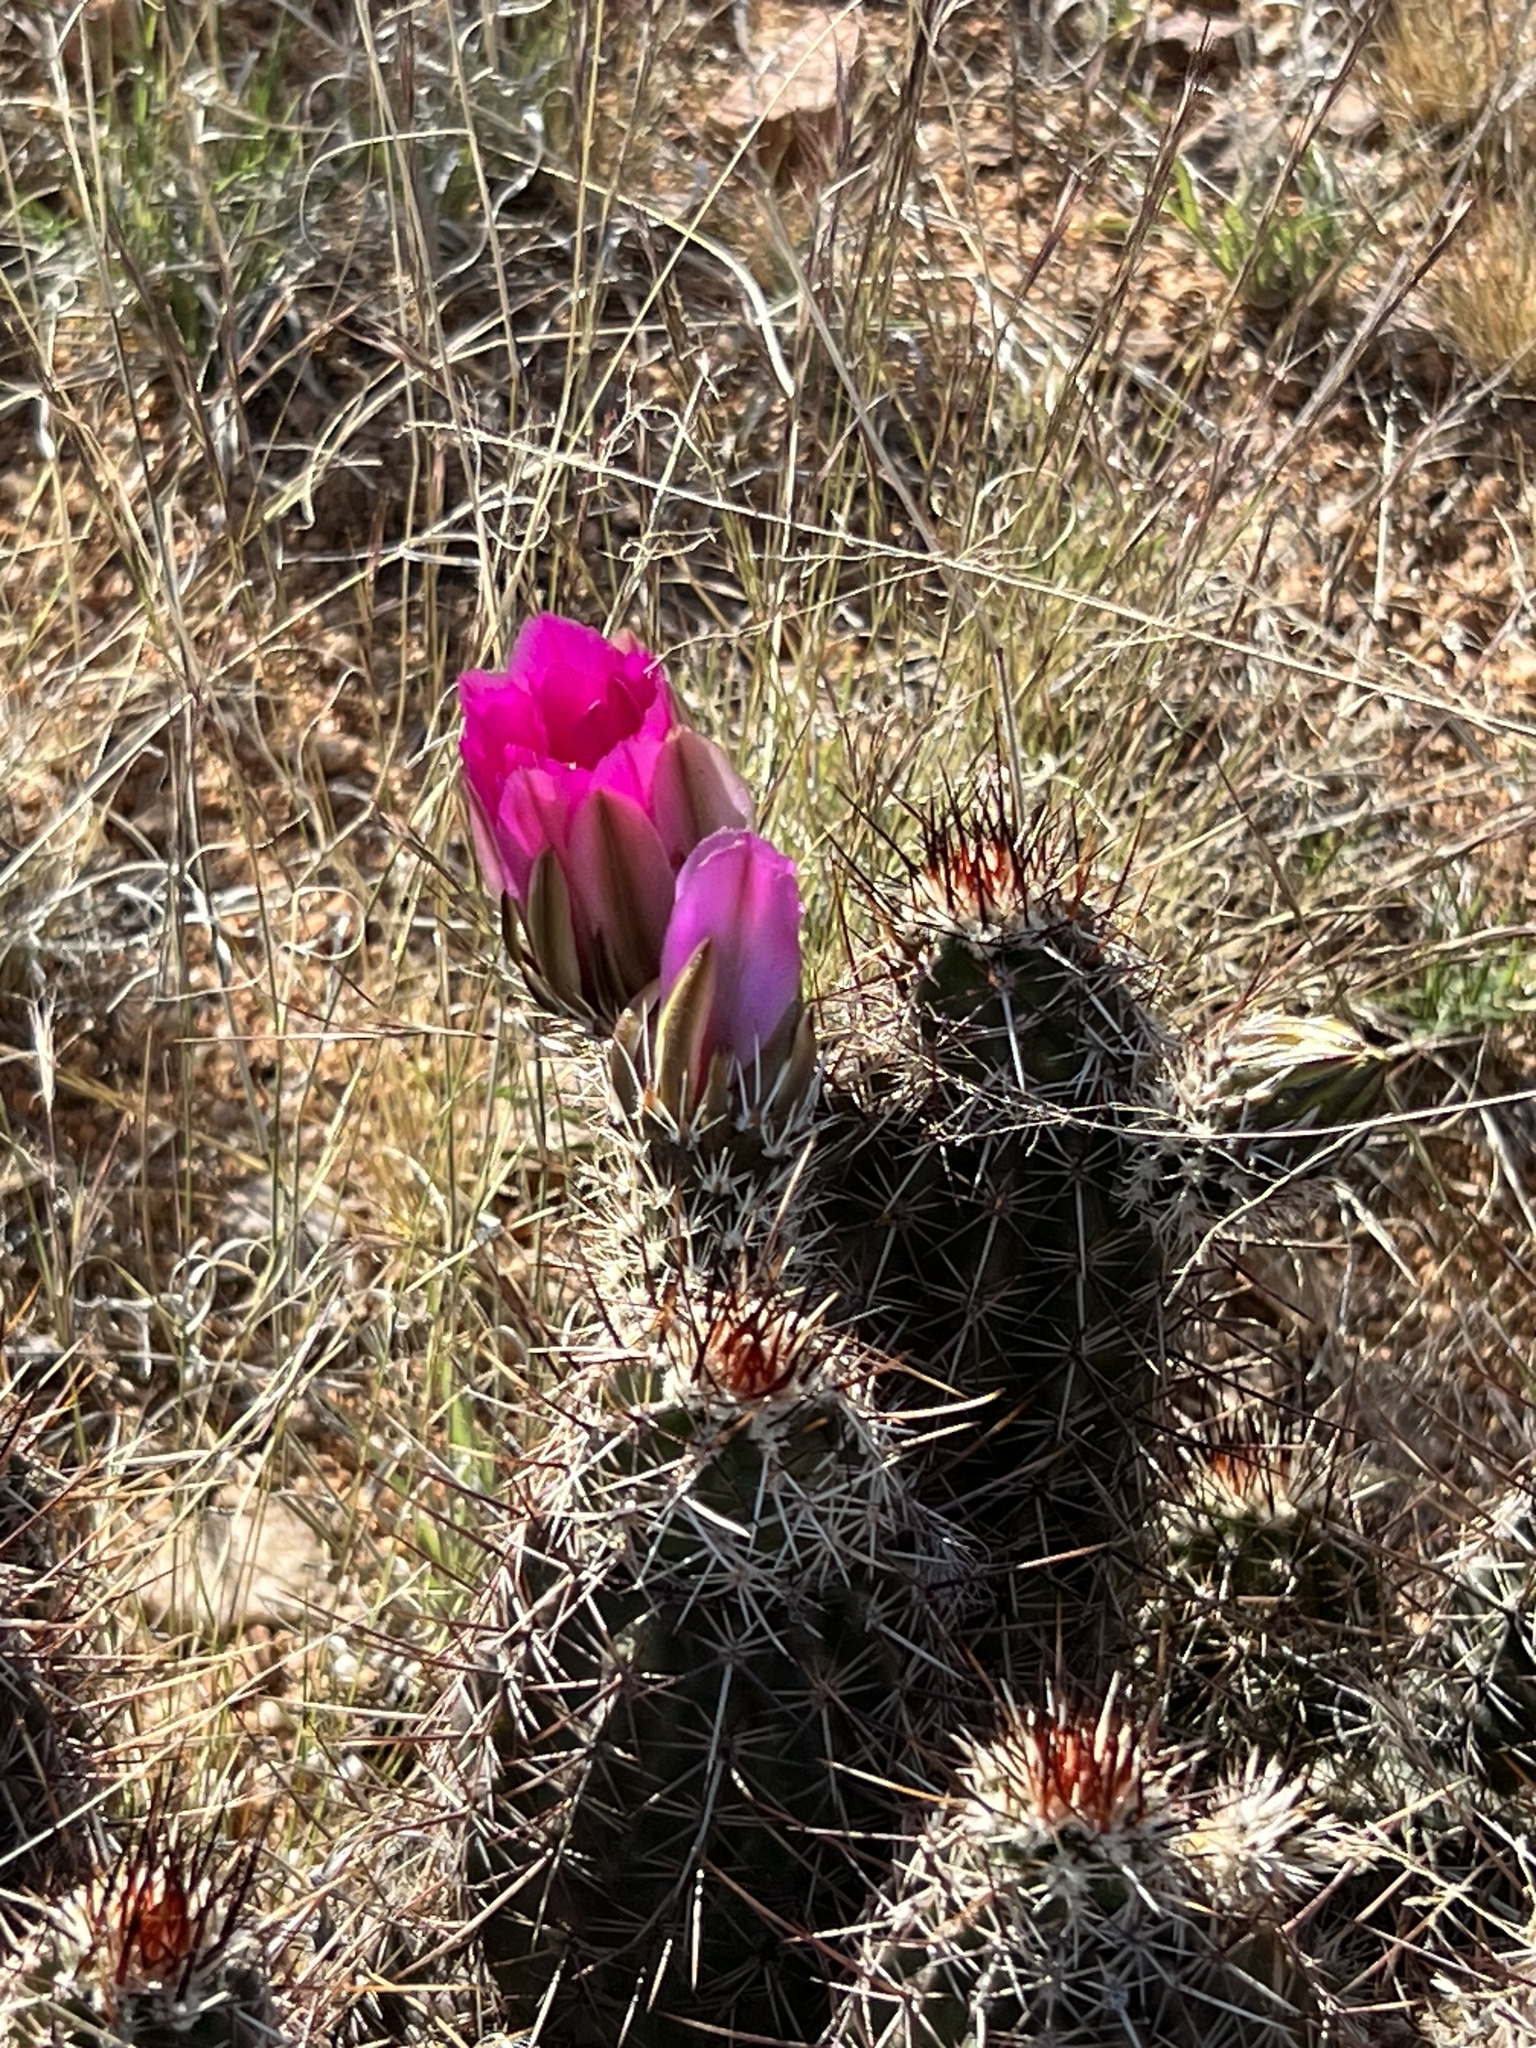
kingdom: Plantae
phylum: Tracheophyta
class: Magnoliopsida
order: Caryophyllales
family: Cactaceae
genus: Echinocereus
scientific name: Echinocereus fasciculatus
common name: Bundle hedgehog
